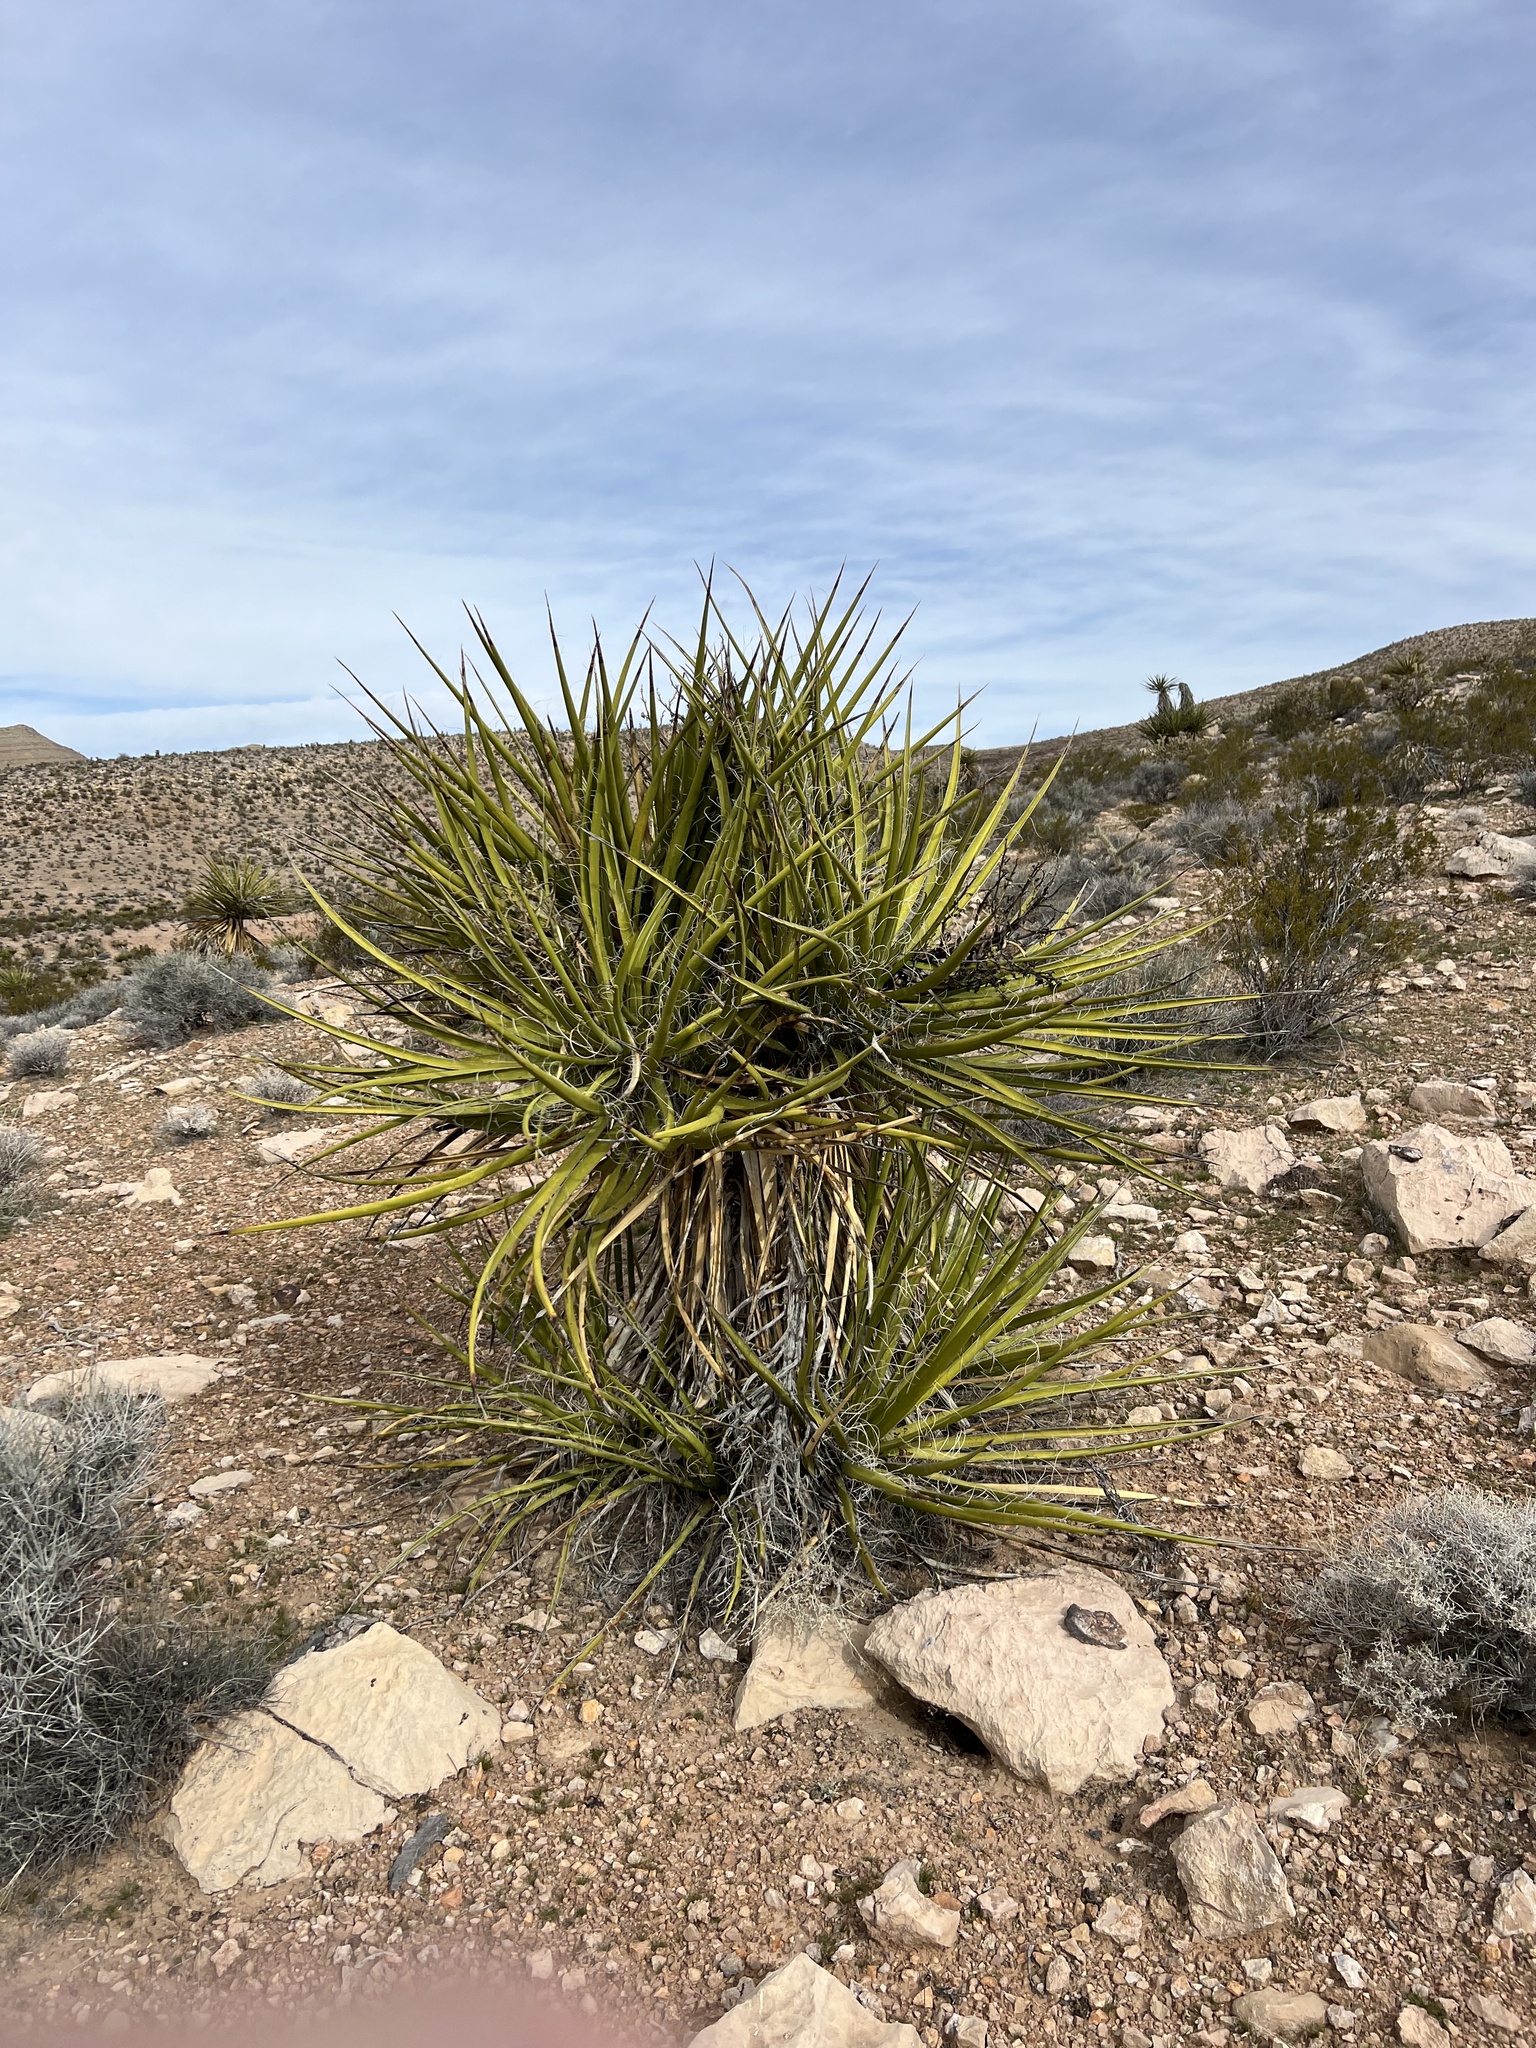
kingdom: Plantae
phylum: Tracheophyta
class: Liliopsida
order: Asparagales
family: Asparagaceae
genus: Yucca
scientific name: Yucca schidigera
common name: Mojave yucca
